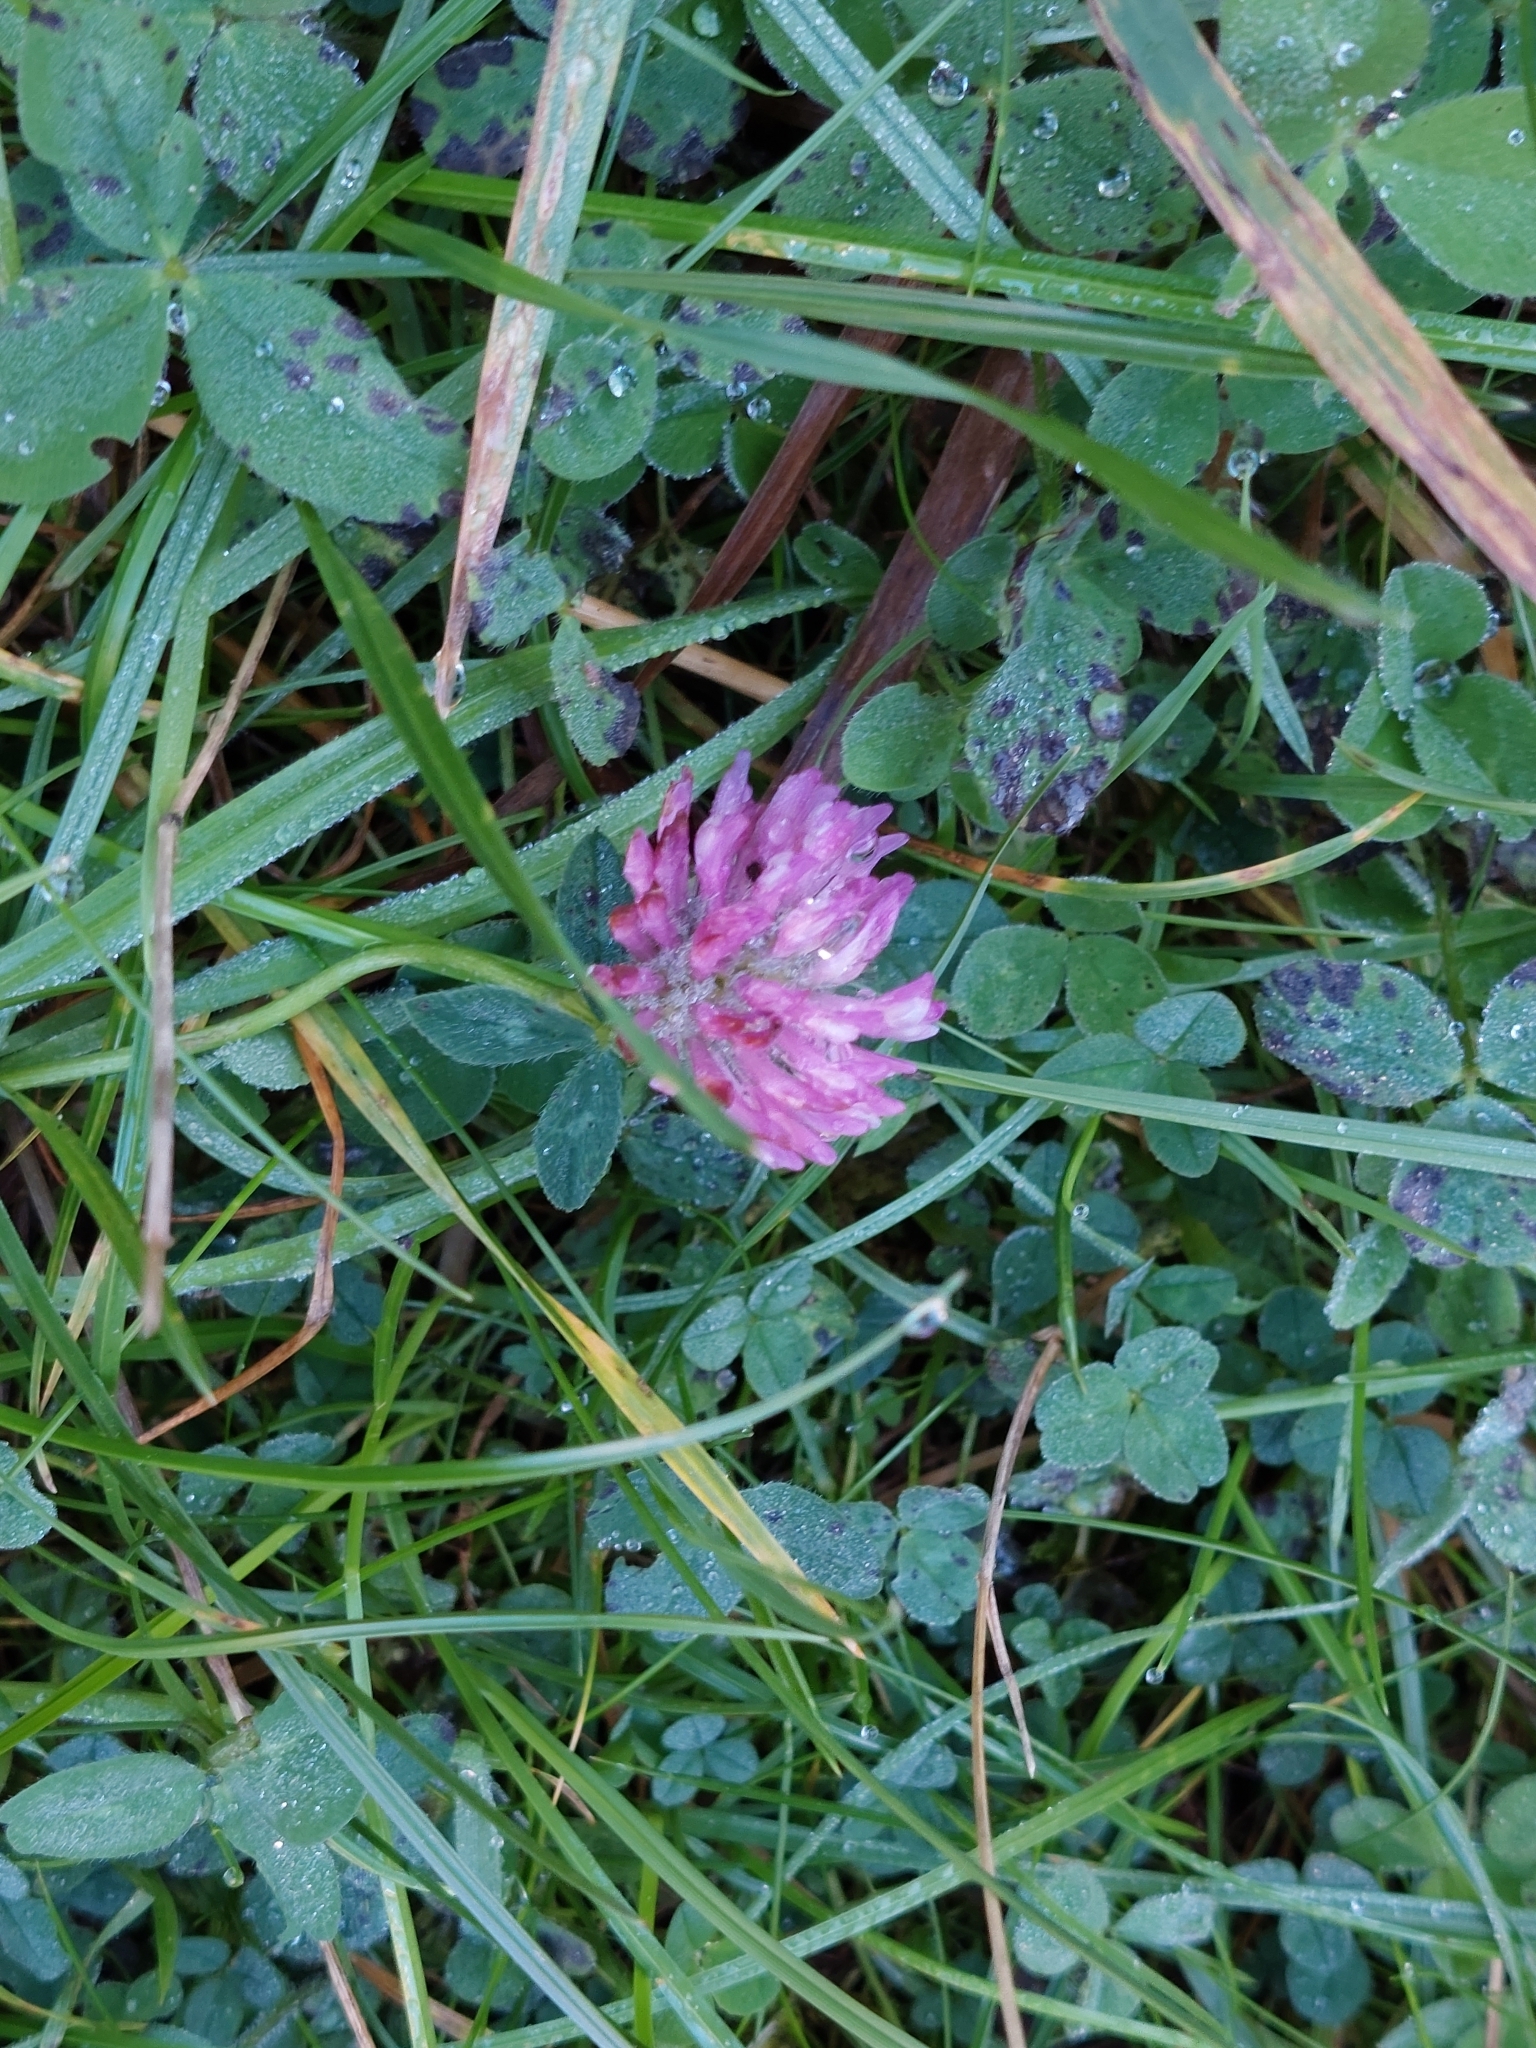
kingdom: Plantae
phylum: Tracheophyta
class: Magnoliopsida
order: Fabales
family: Fabaceae
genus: Trifolium
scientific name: Trifolium pratense
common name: Red clover
